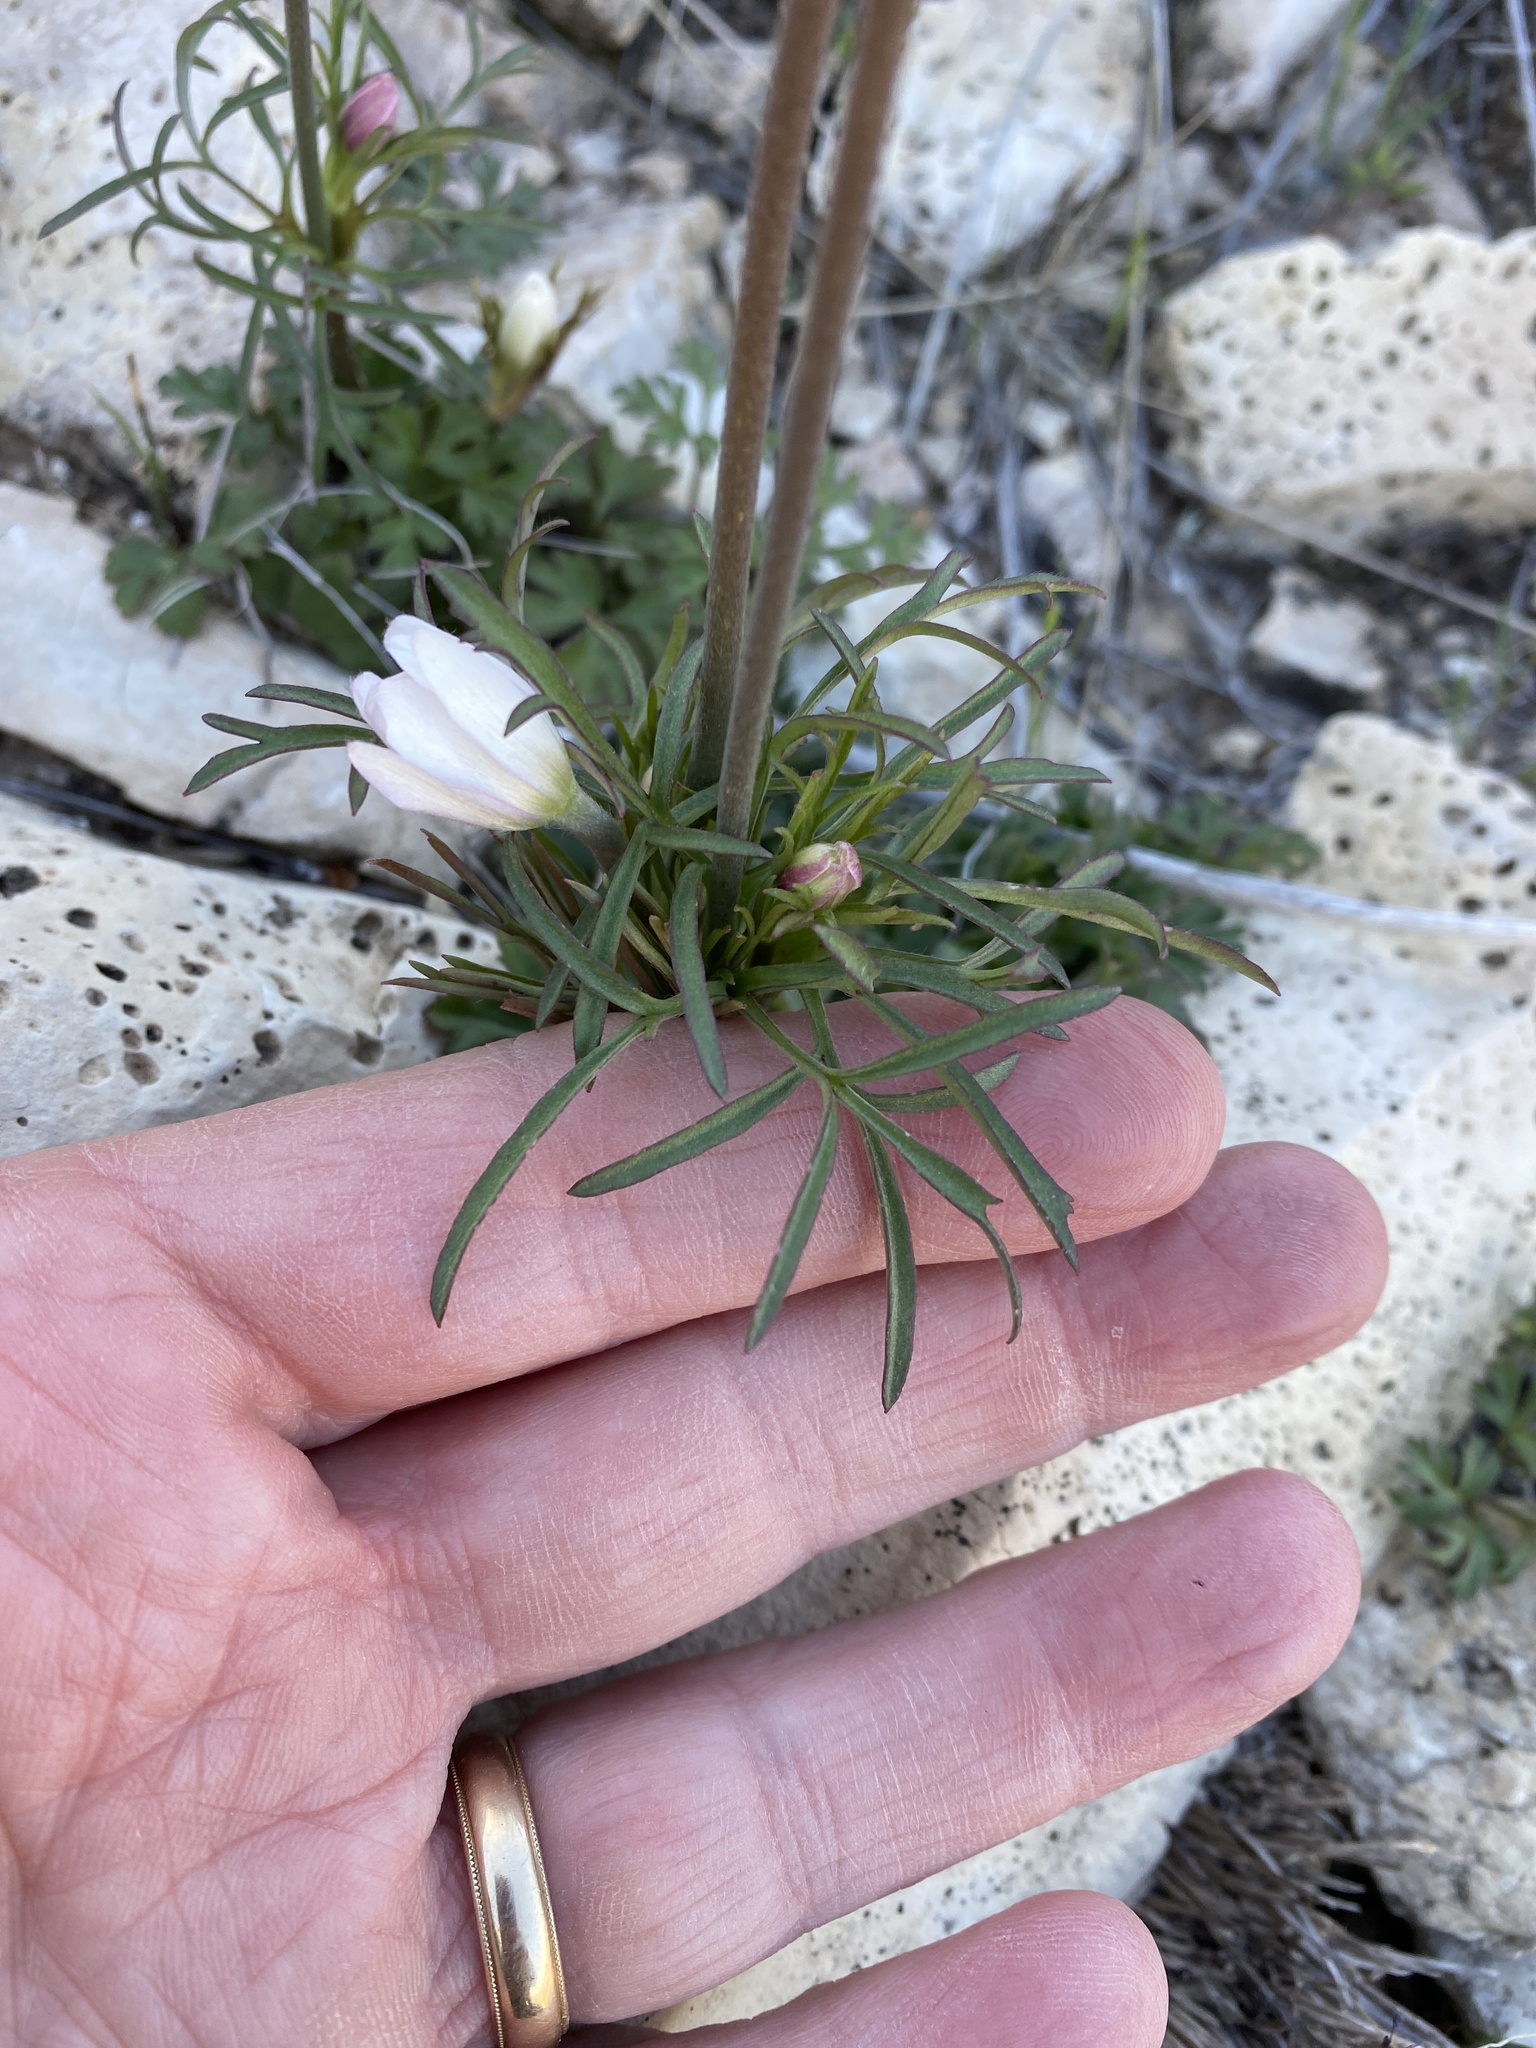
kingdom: Plantae
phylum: Tracheophyta
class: Magnoliopsida
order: Ranunculales
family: Ranunculaceae
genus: Anemone
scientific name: Anemone tuberosa
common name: Desert anemone
